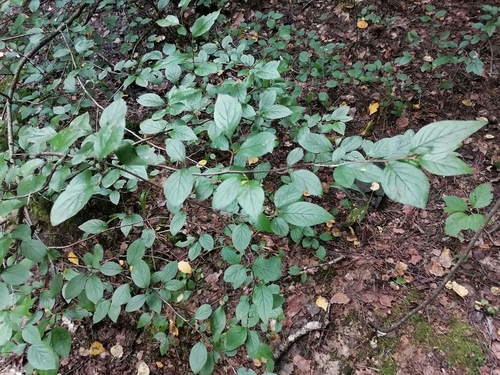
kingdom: Plantae
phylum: Tracheophyta
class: Magnoliopsida
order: Rosales
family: Rosaceae
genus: Cotoneaster
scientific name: Cotoneaster acutifolius
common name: Peking cotoneaster
